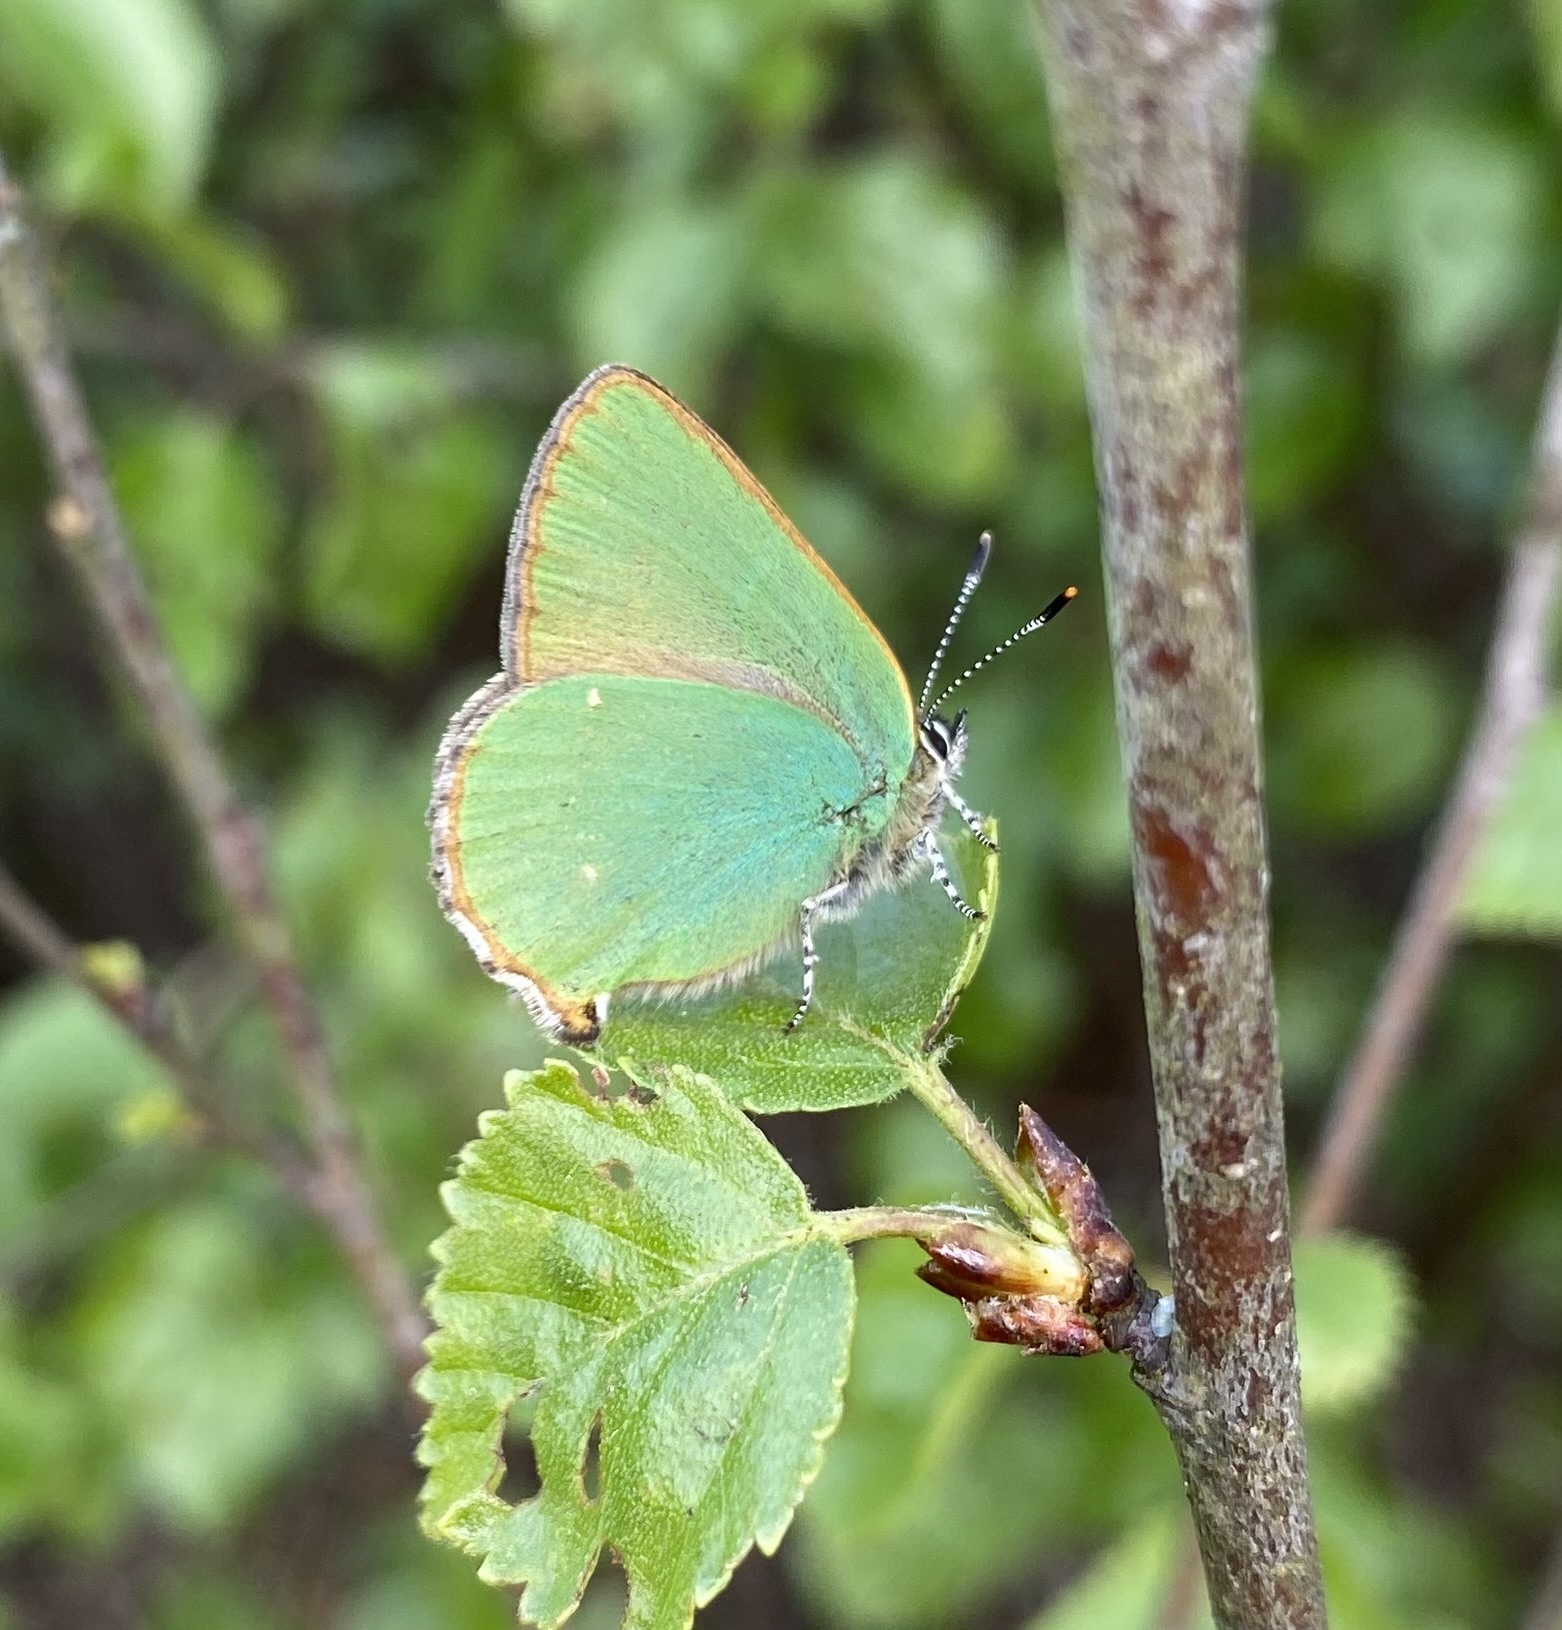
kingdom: Animalia
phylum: Arthropoda
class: Insecta
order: Lepidoptera
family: Lycaenidae
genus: Callophrys
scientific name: Callophrys rubi
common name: Green hairstreak
